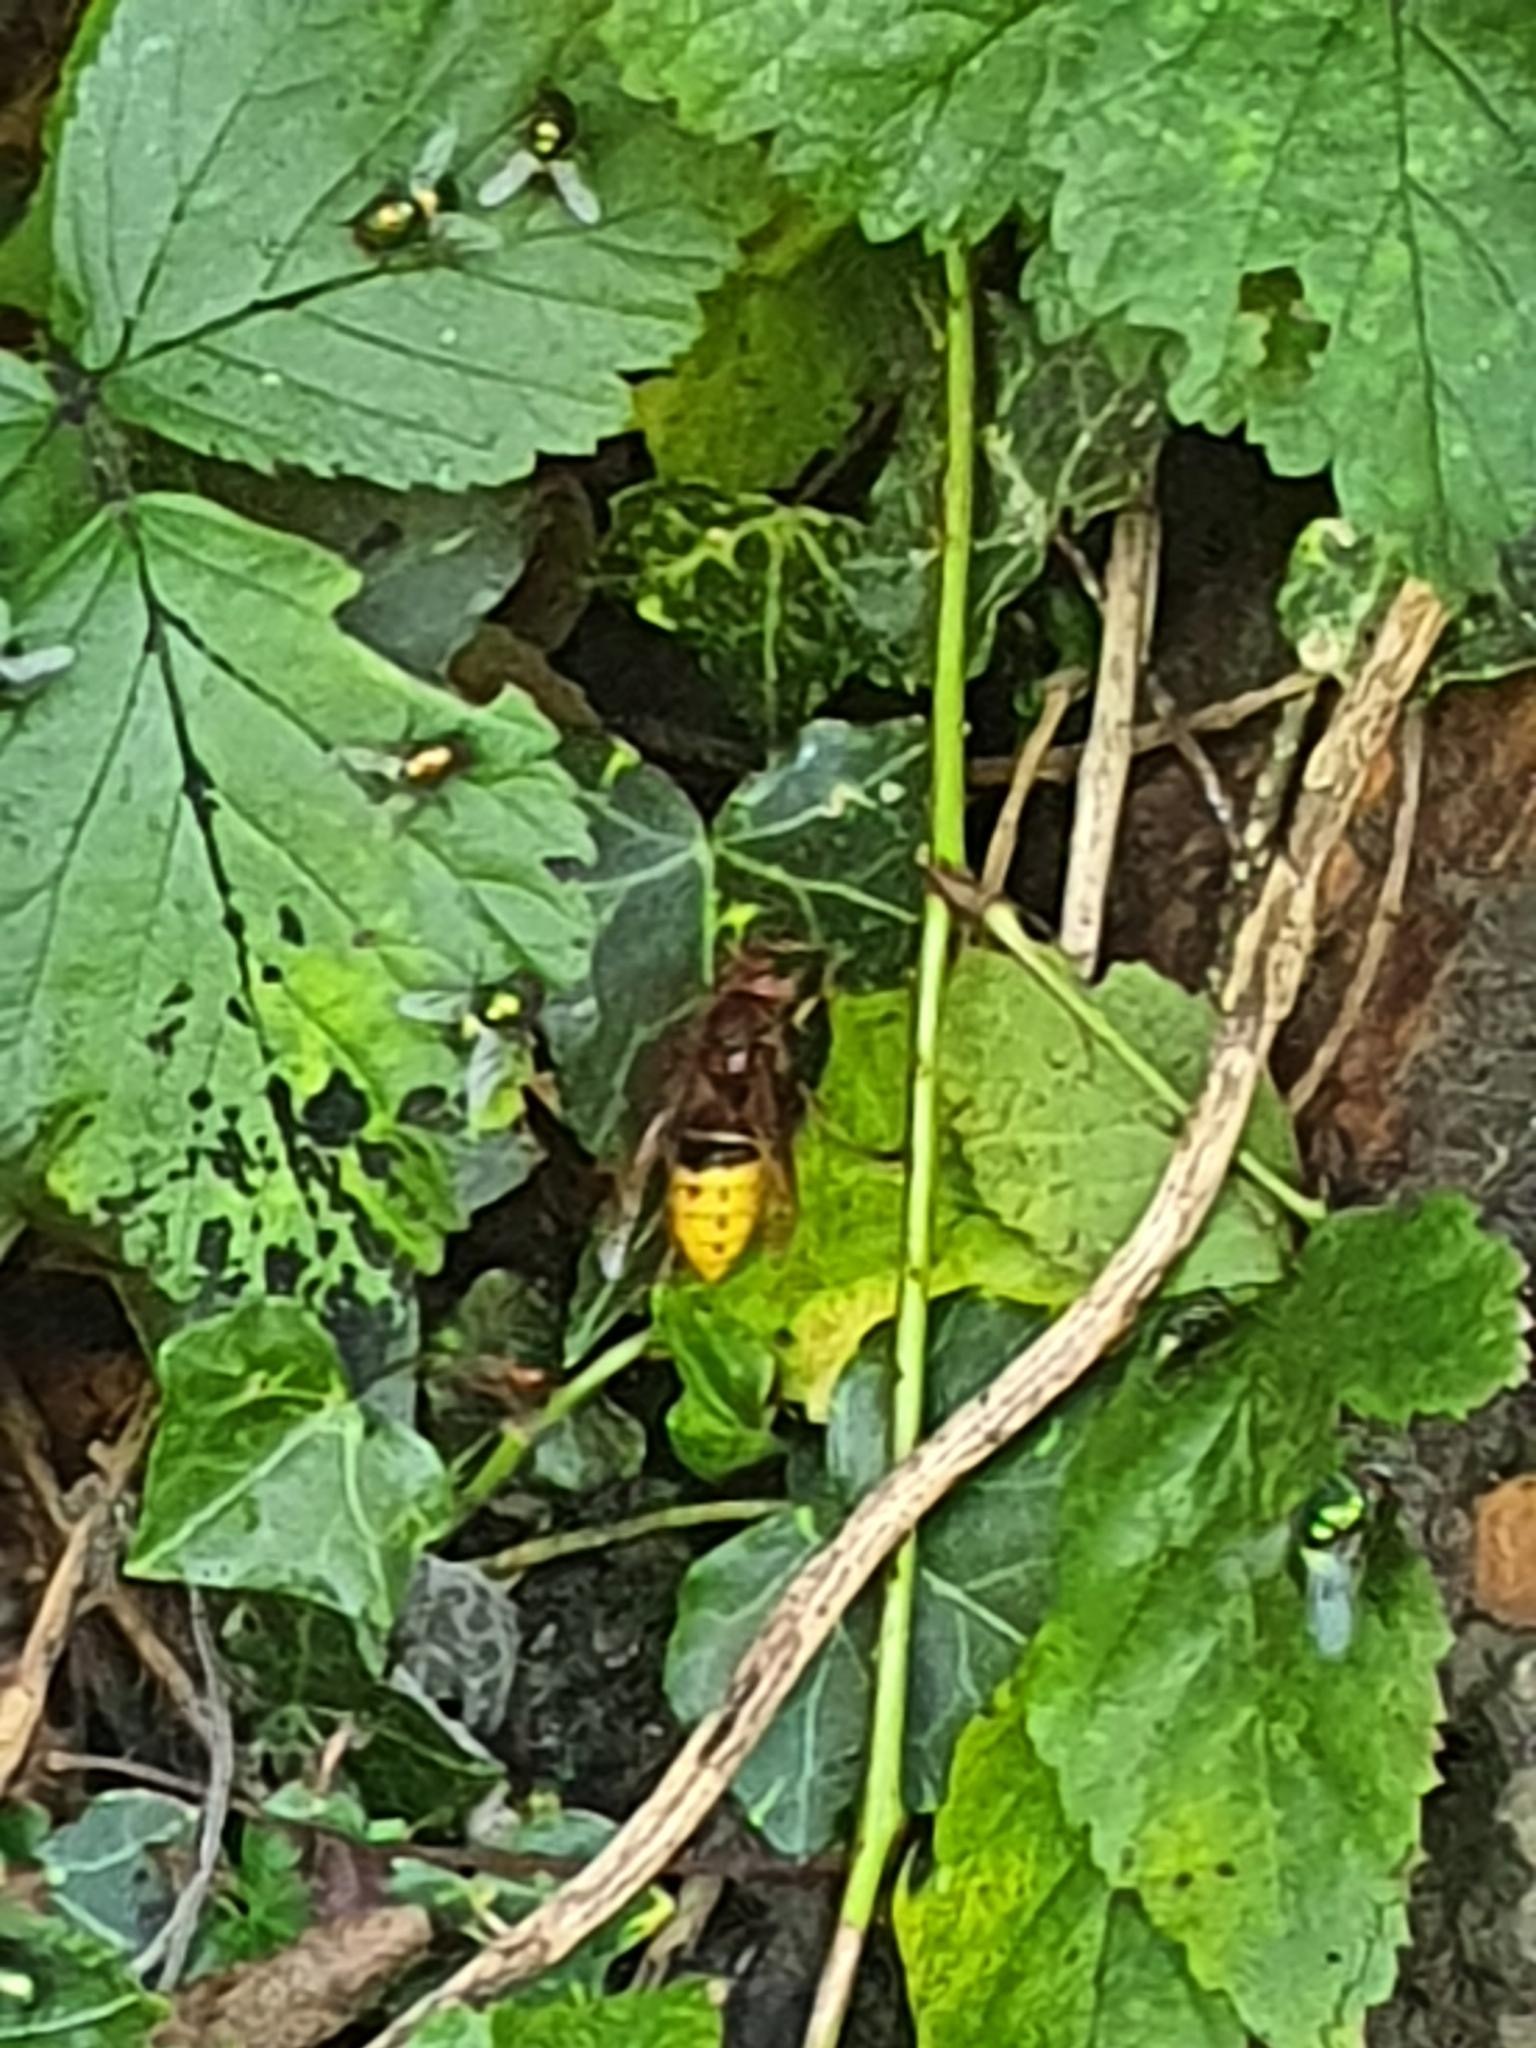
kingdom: Animalia
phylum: Arthropoda
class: Insecta
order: Hymenoptera
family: Vespidae
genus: Vespa
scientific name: Vespa crabro
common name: Hornet
